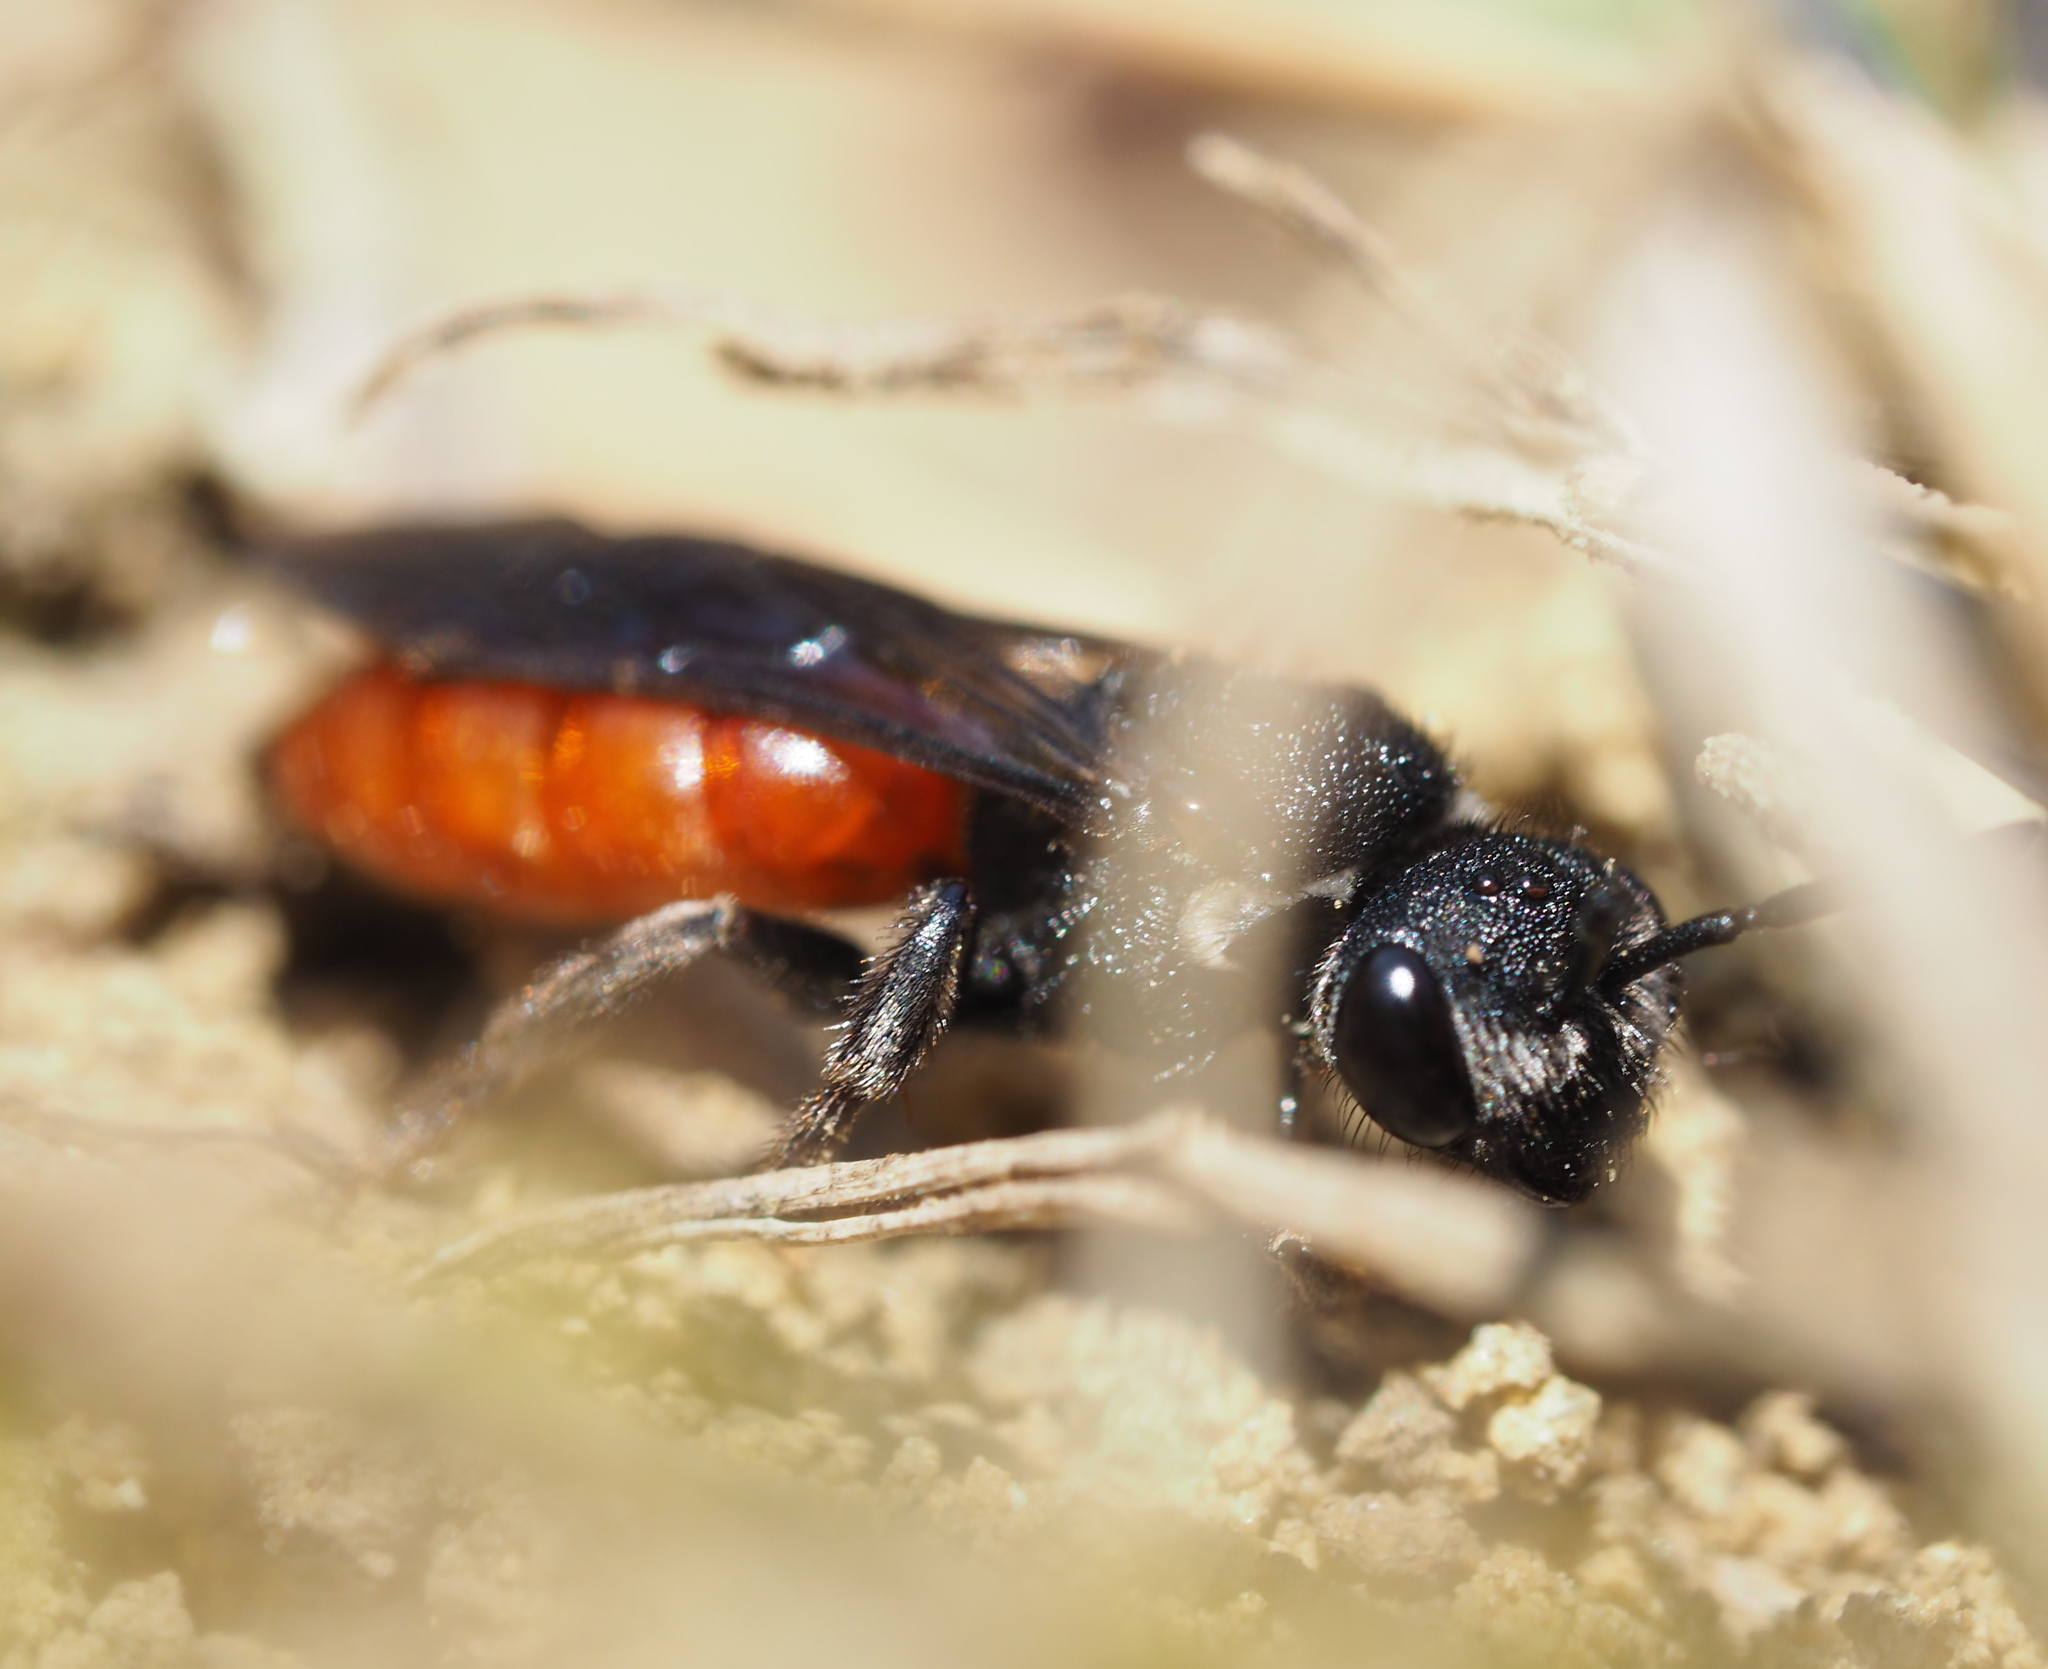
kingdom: Animalia
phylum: Arthropoda
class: Insecta
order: Hymenoptera
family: Halictidae
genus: Sphecodes
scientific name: Sphecodes albilabris
